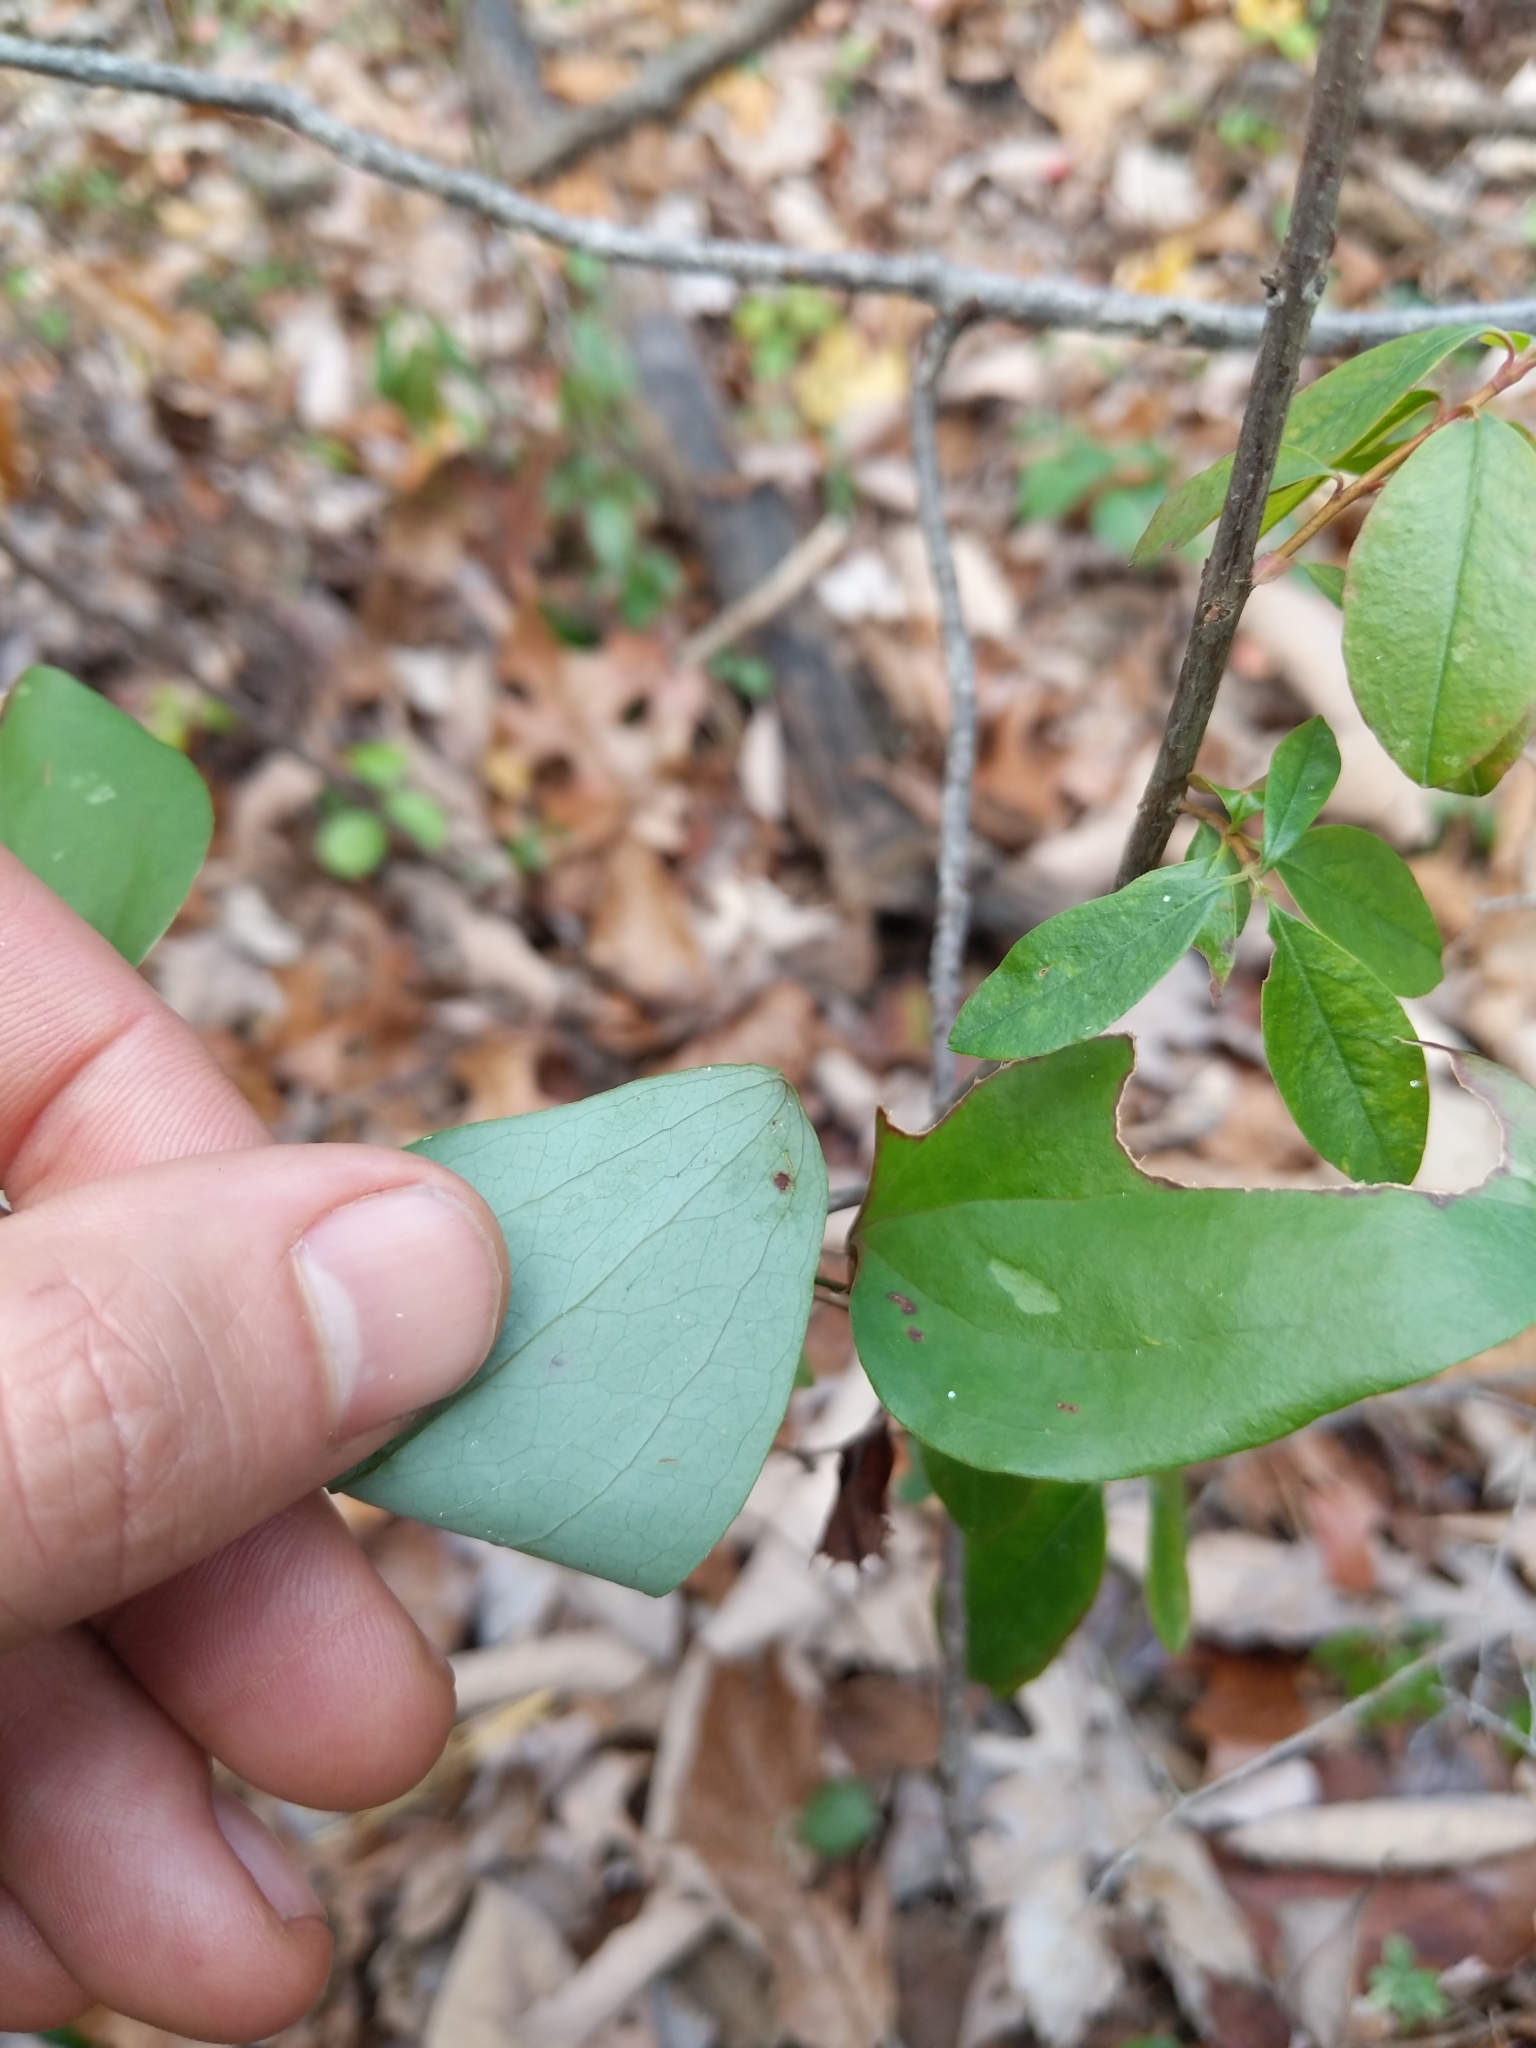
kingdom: Plantae
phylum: Tracheophyta
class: Liliopsida
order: Liliales
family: Smilacaceae
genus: Smilax
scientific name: Smilax glauca
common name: Cat greenbrier
